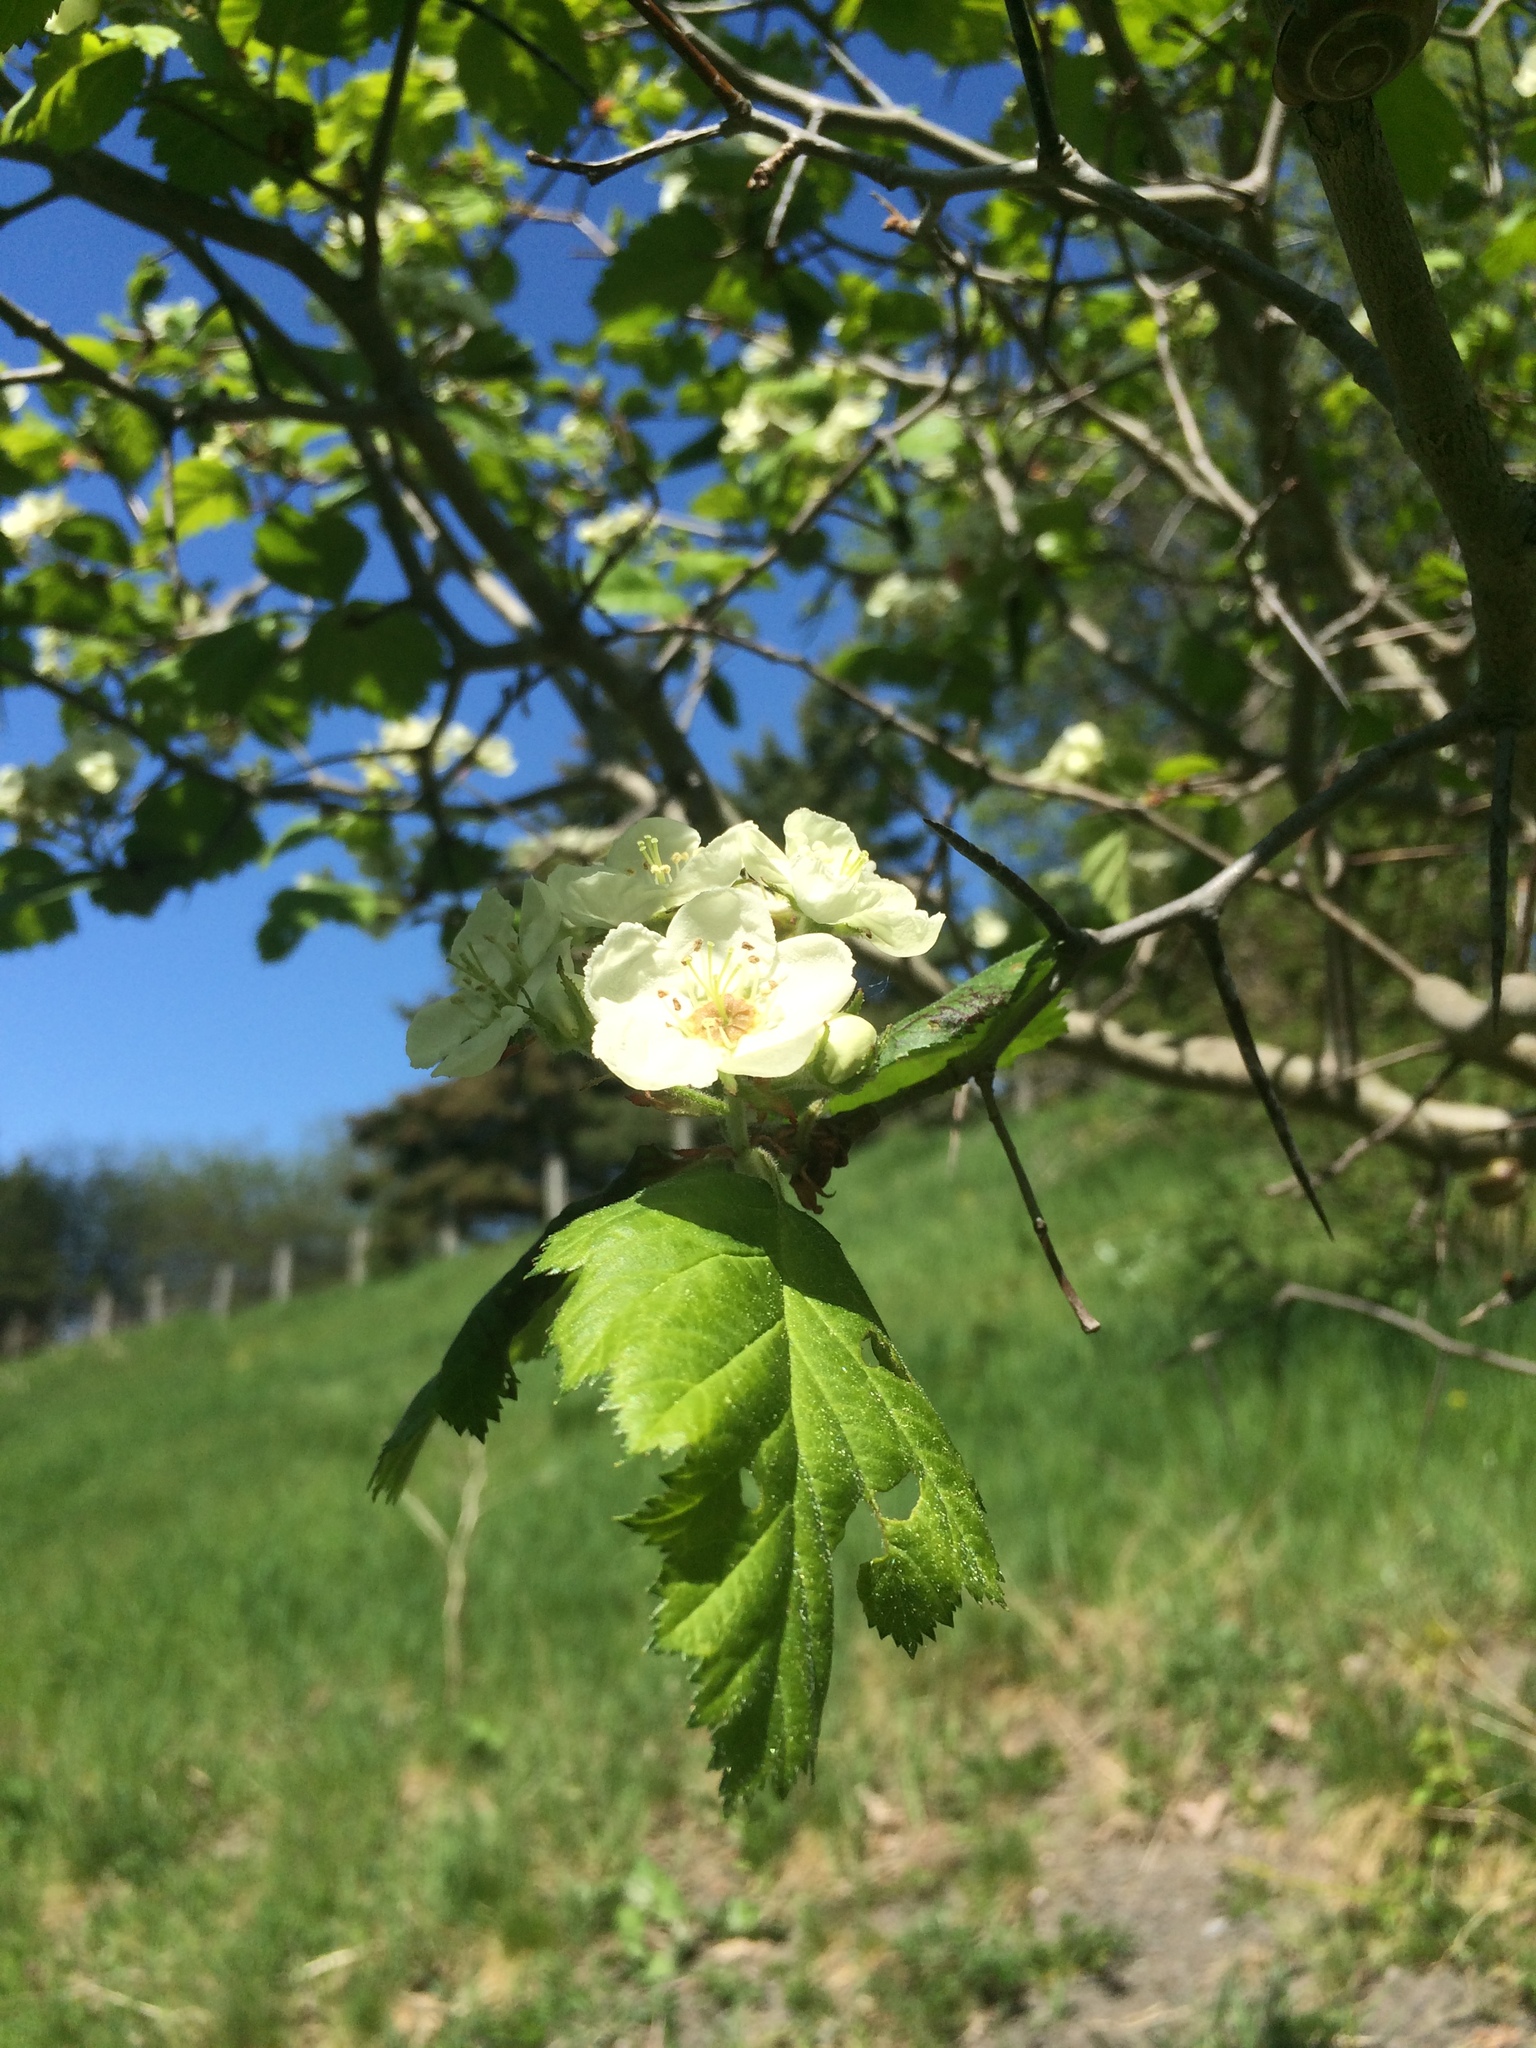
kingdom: Plantae
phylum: Tracheophyta
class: Magnoliopsida
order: Rosales
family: Rosaceae
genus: Crataegus
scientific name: Crataegus submollis
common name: Hairy cockspurthorn
